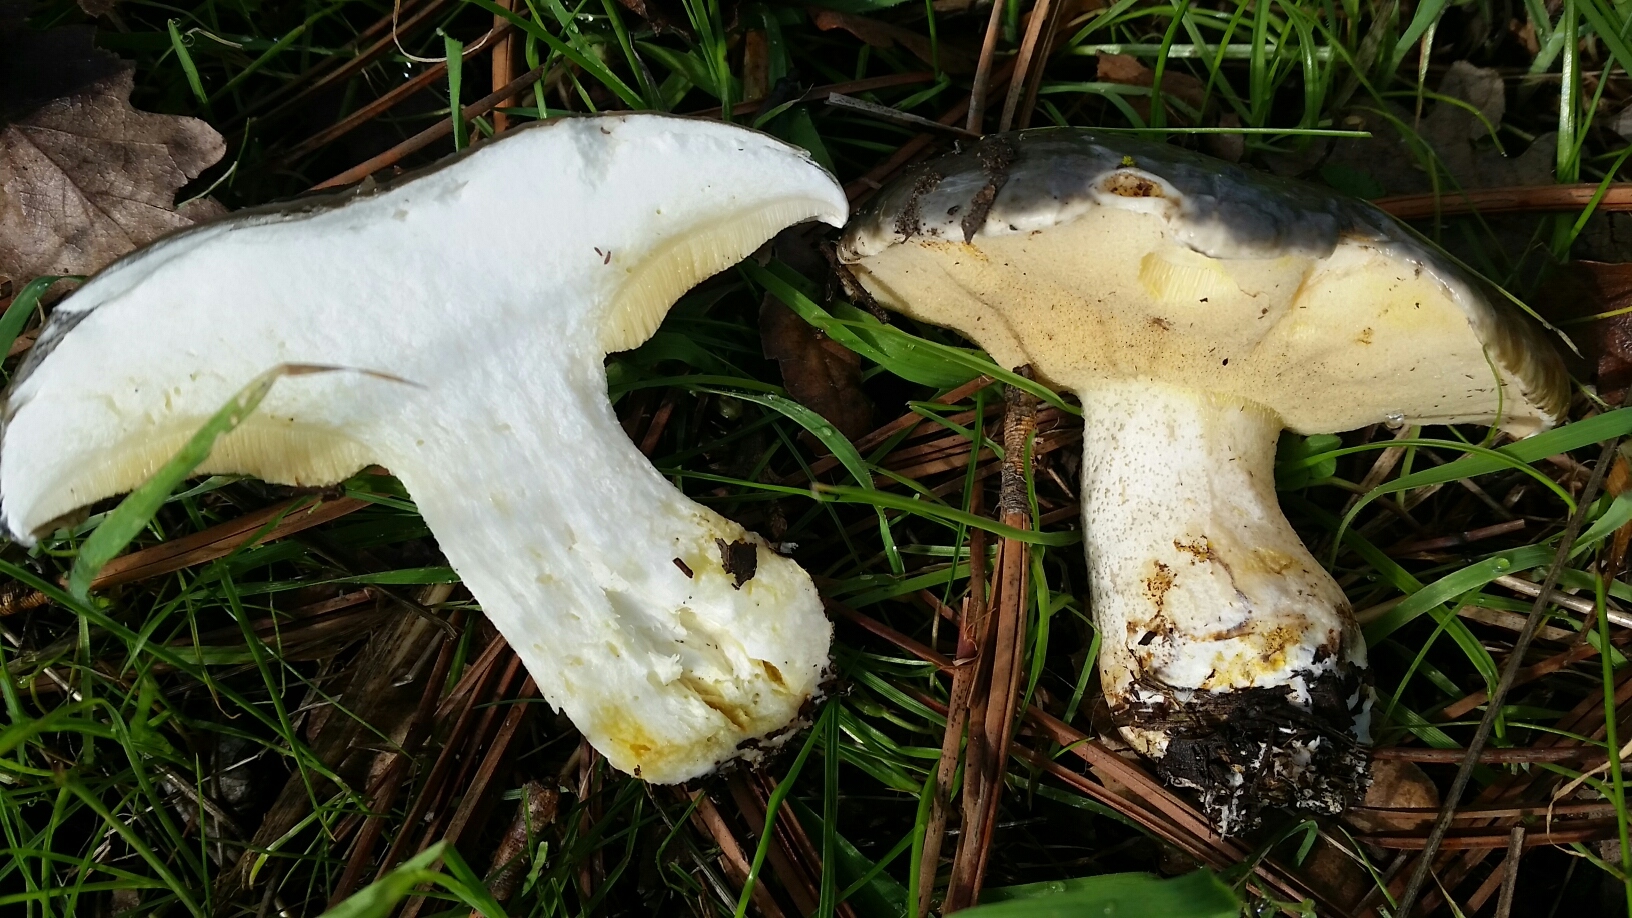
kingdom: Fungi
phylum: Basidiomycota
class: Agaricomycetes
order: Boletales
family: Suillaceae
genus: Suillus
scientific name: Suillus pungens
